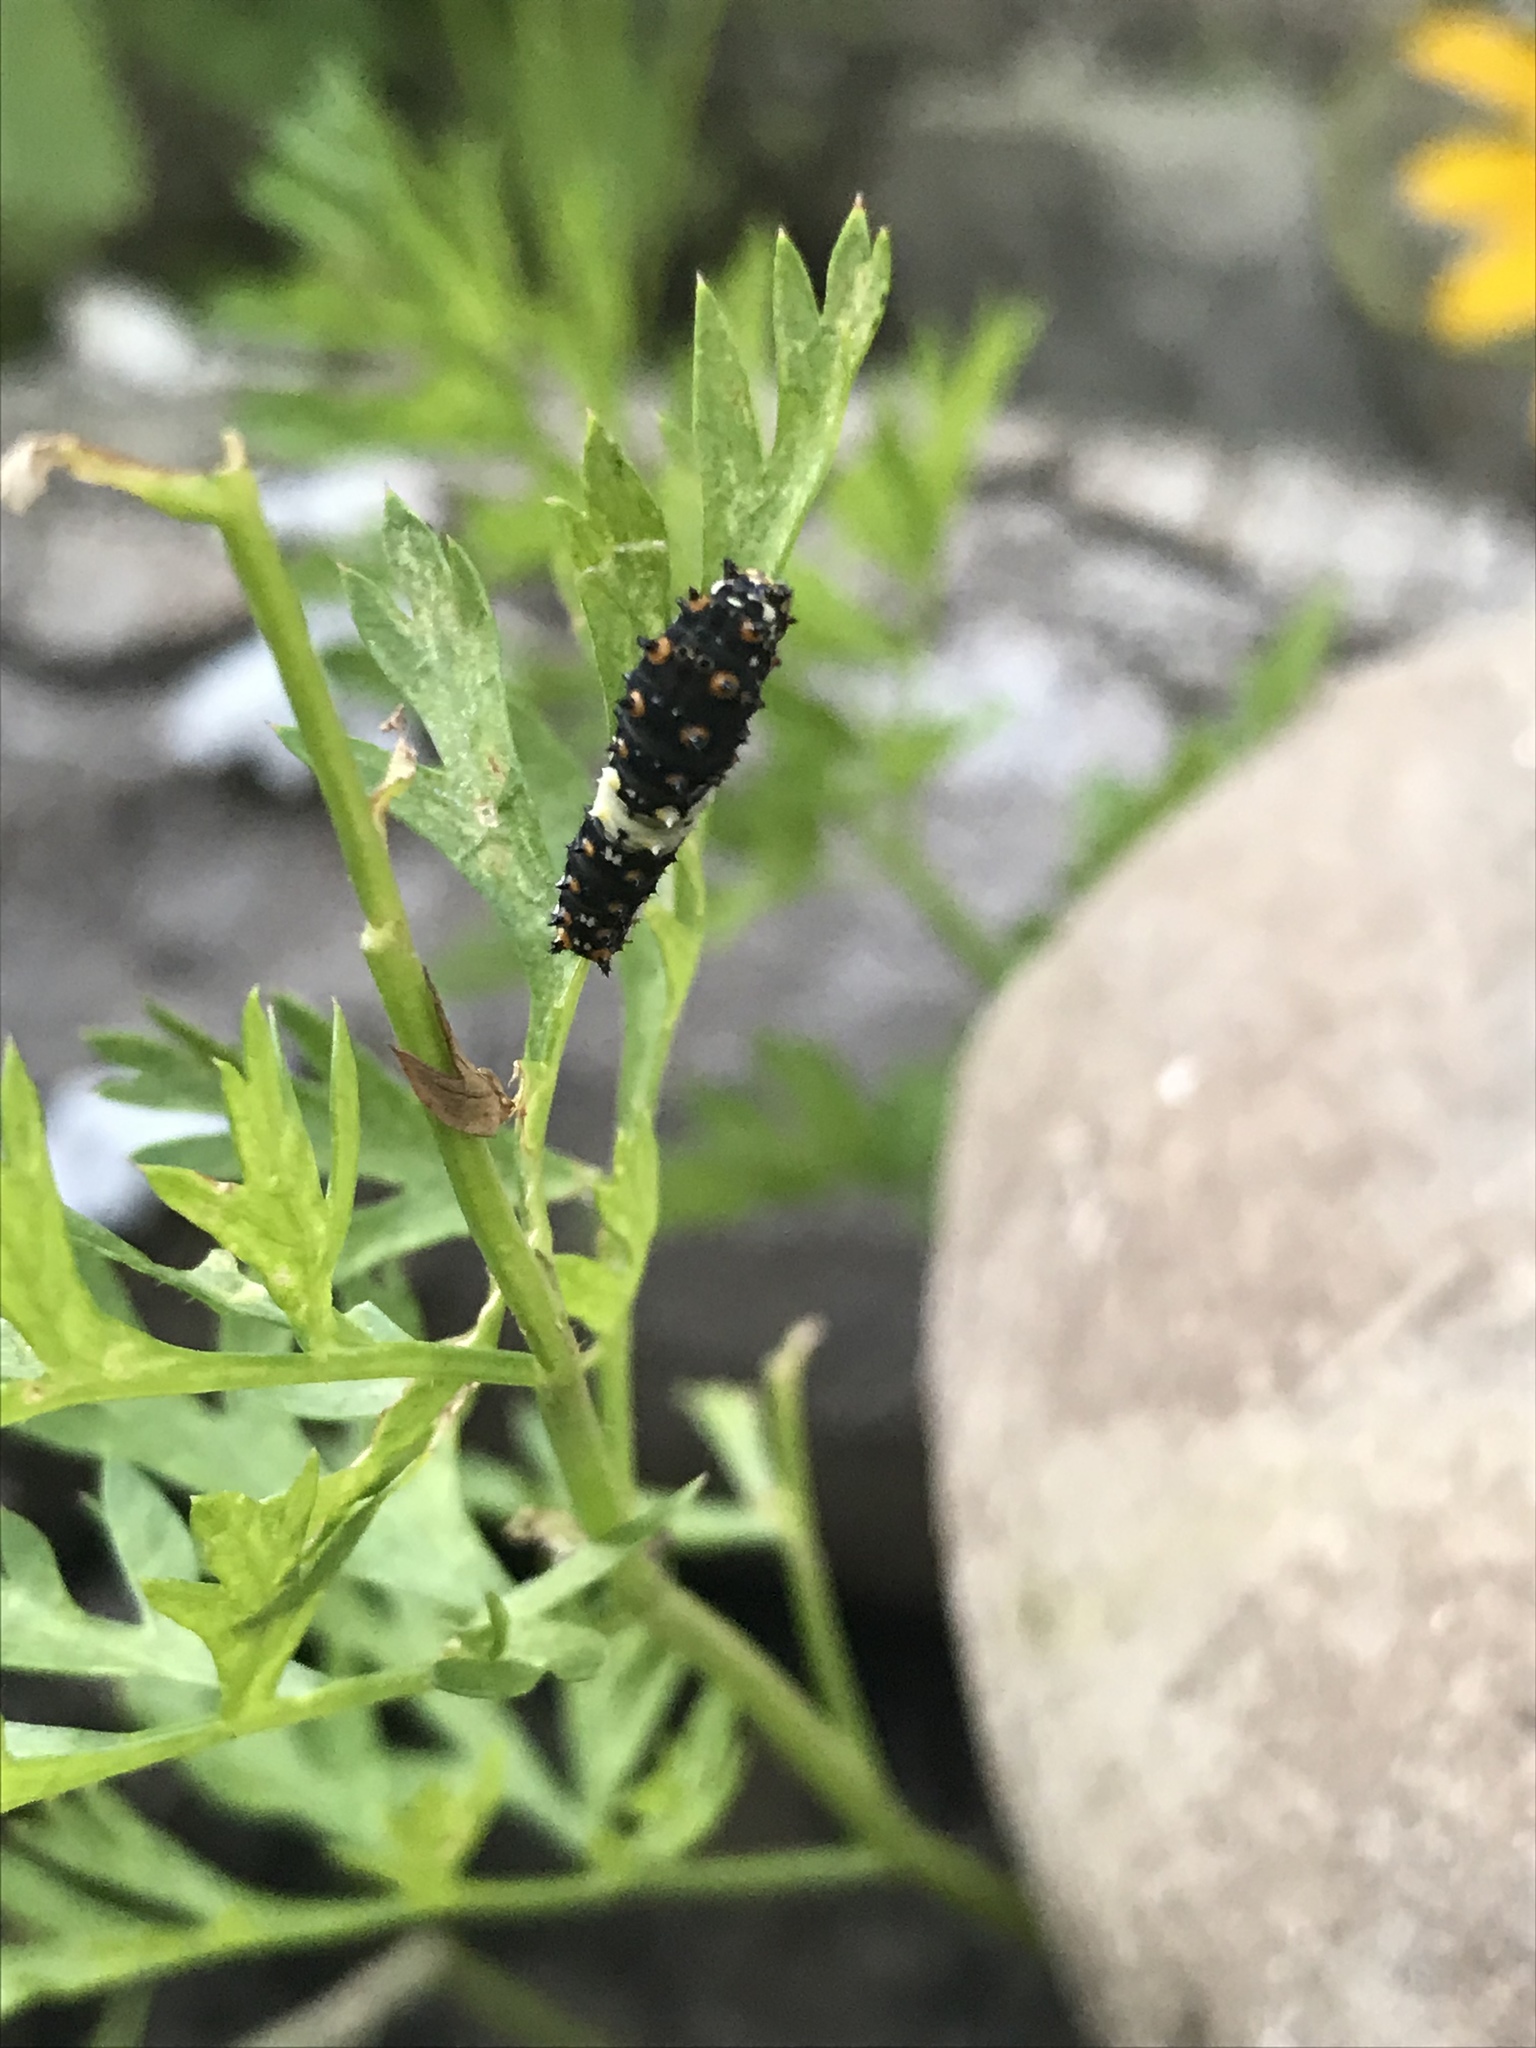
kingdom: Animalia
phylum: Arthropoda
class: Insecta
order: Lepidoptera
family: Papilionidae
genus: Papilio
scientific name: Papilio polyxenes
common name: Black swallowtail
